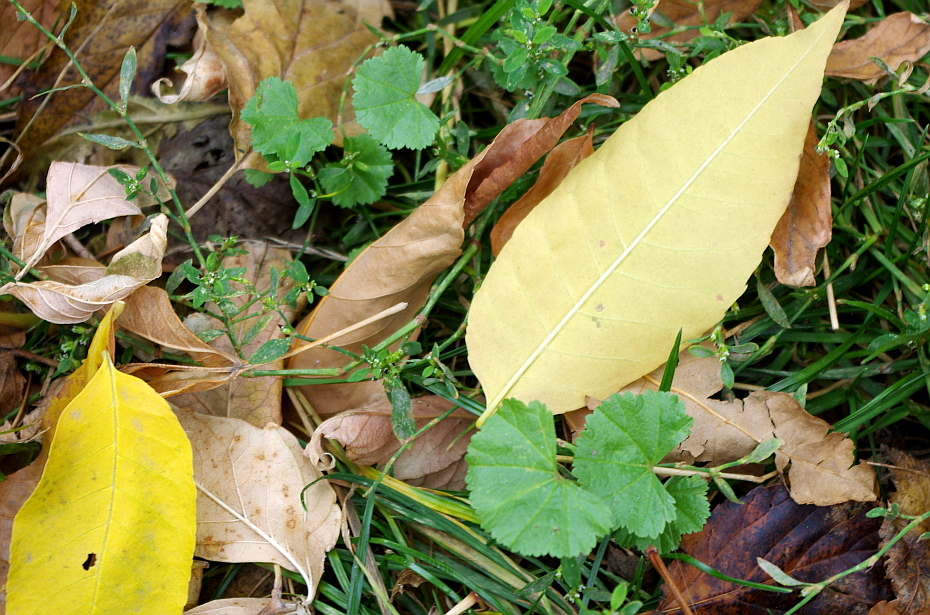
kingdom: Plantae
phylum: Tracheophyta
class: Magnoliopsida
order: Malvales
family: Malvaceae
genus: Malva
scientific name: Malva pusilla
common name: Small mallow
